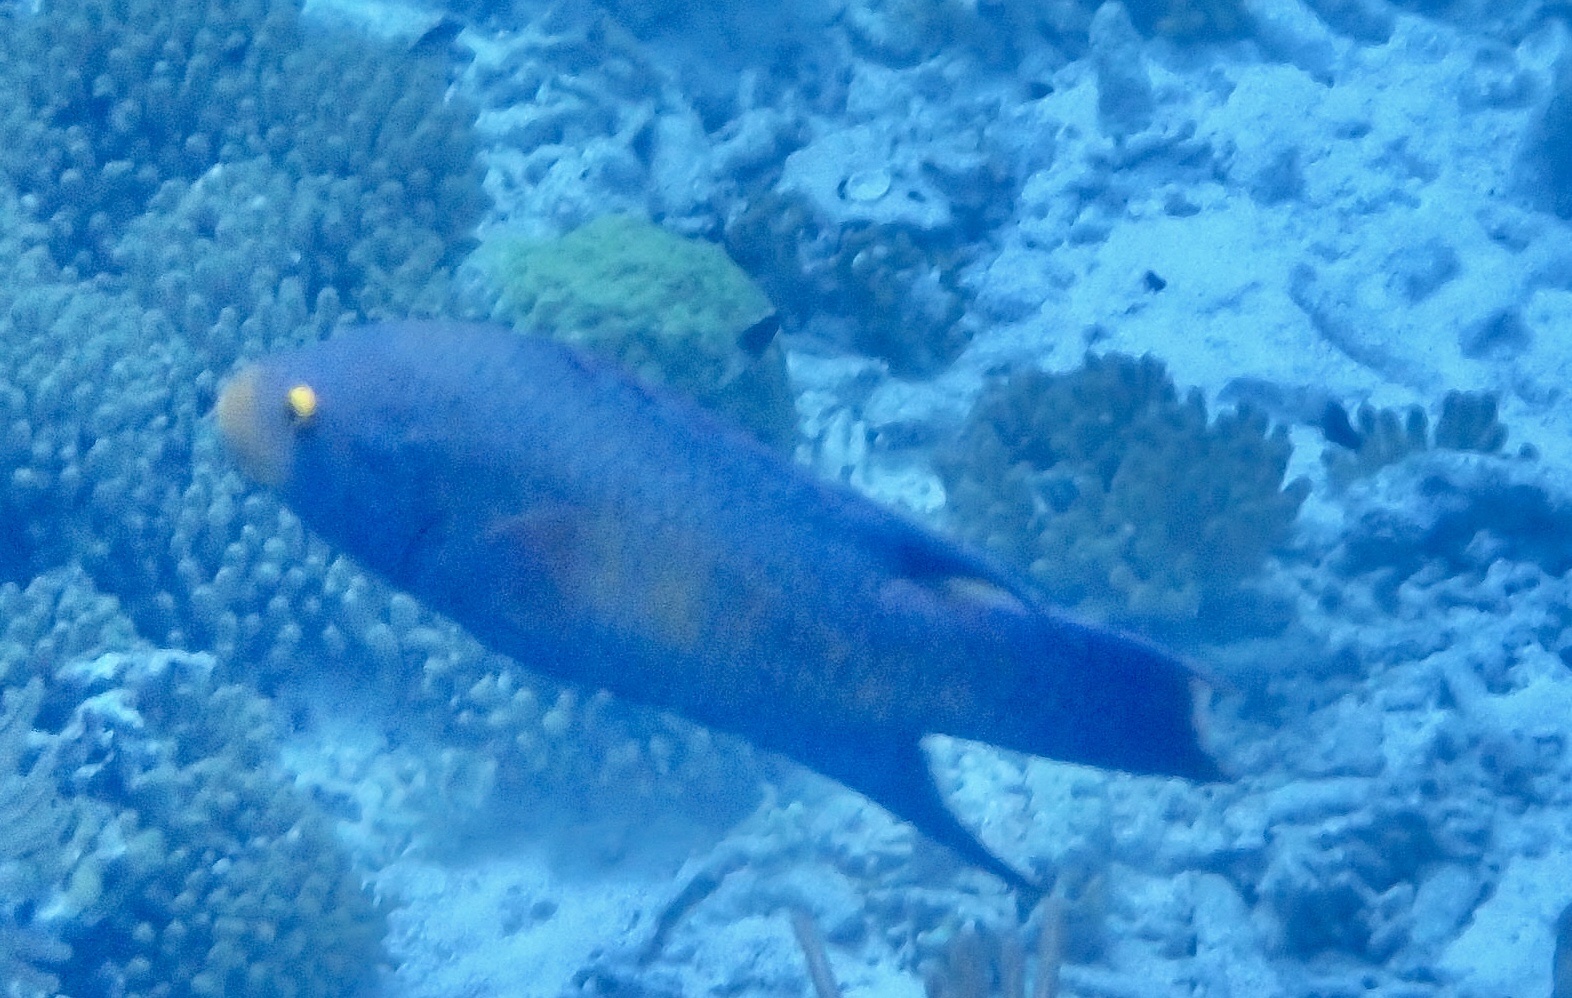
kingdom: Animalia
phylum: Chordata
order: Perciformes
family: Labridae
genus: Bodianus
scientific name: Bodianus rufus
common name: Spanish hogfish
